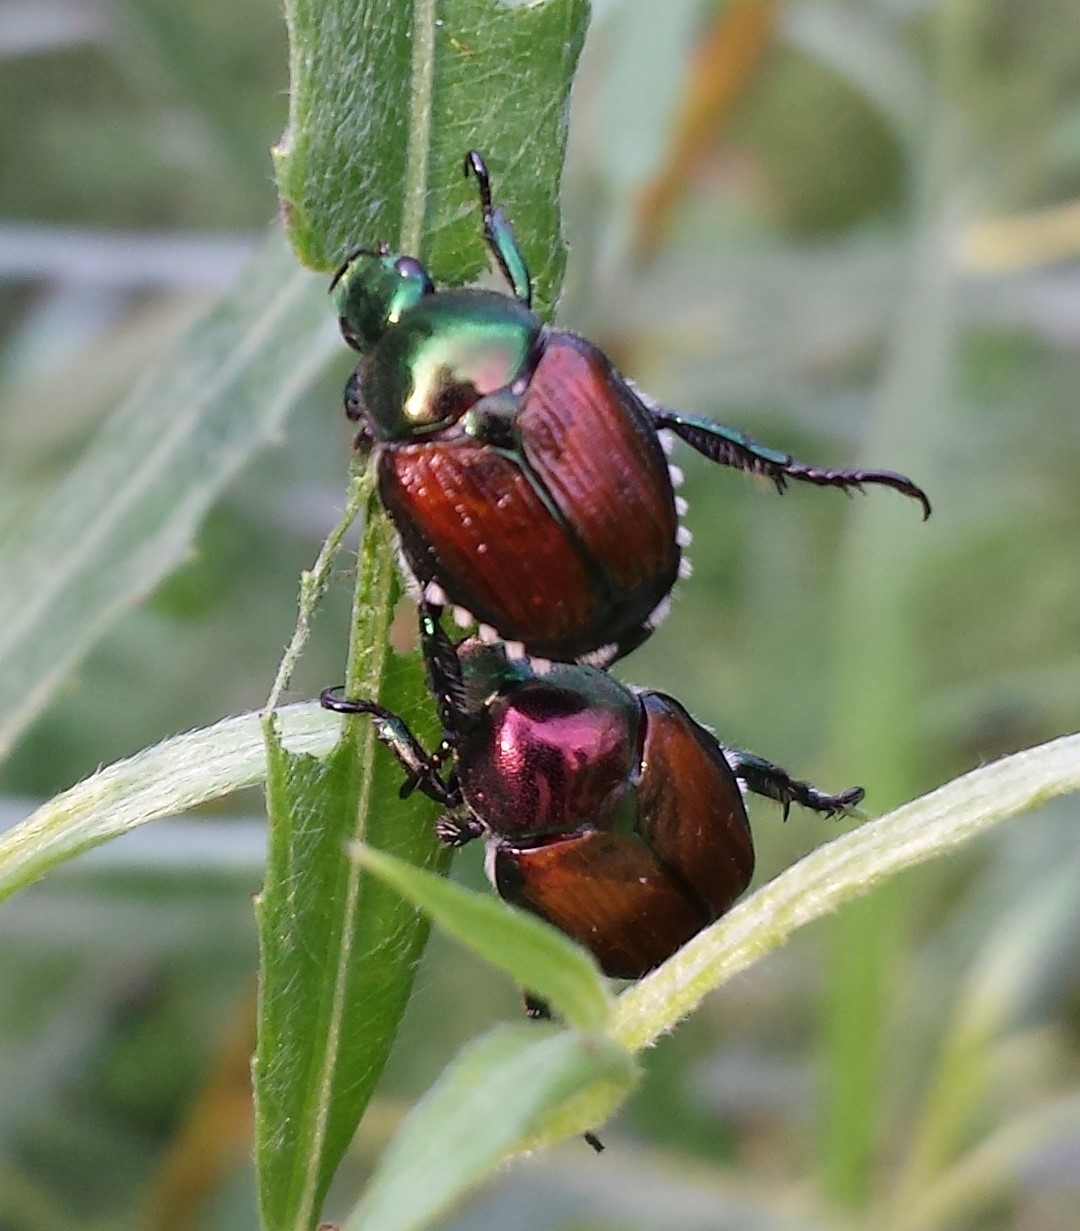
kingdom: Animalia
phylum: Arthropoda
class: Insecta
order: Coleoptera
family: Scarabaeidae
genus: Popillia
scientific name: Popillia japonica
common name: Japanese beetle
